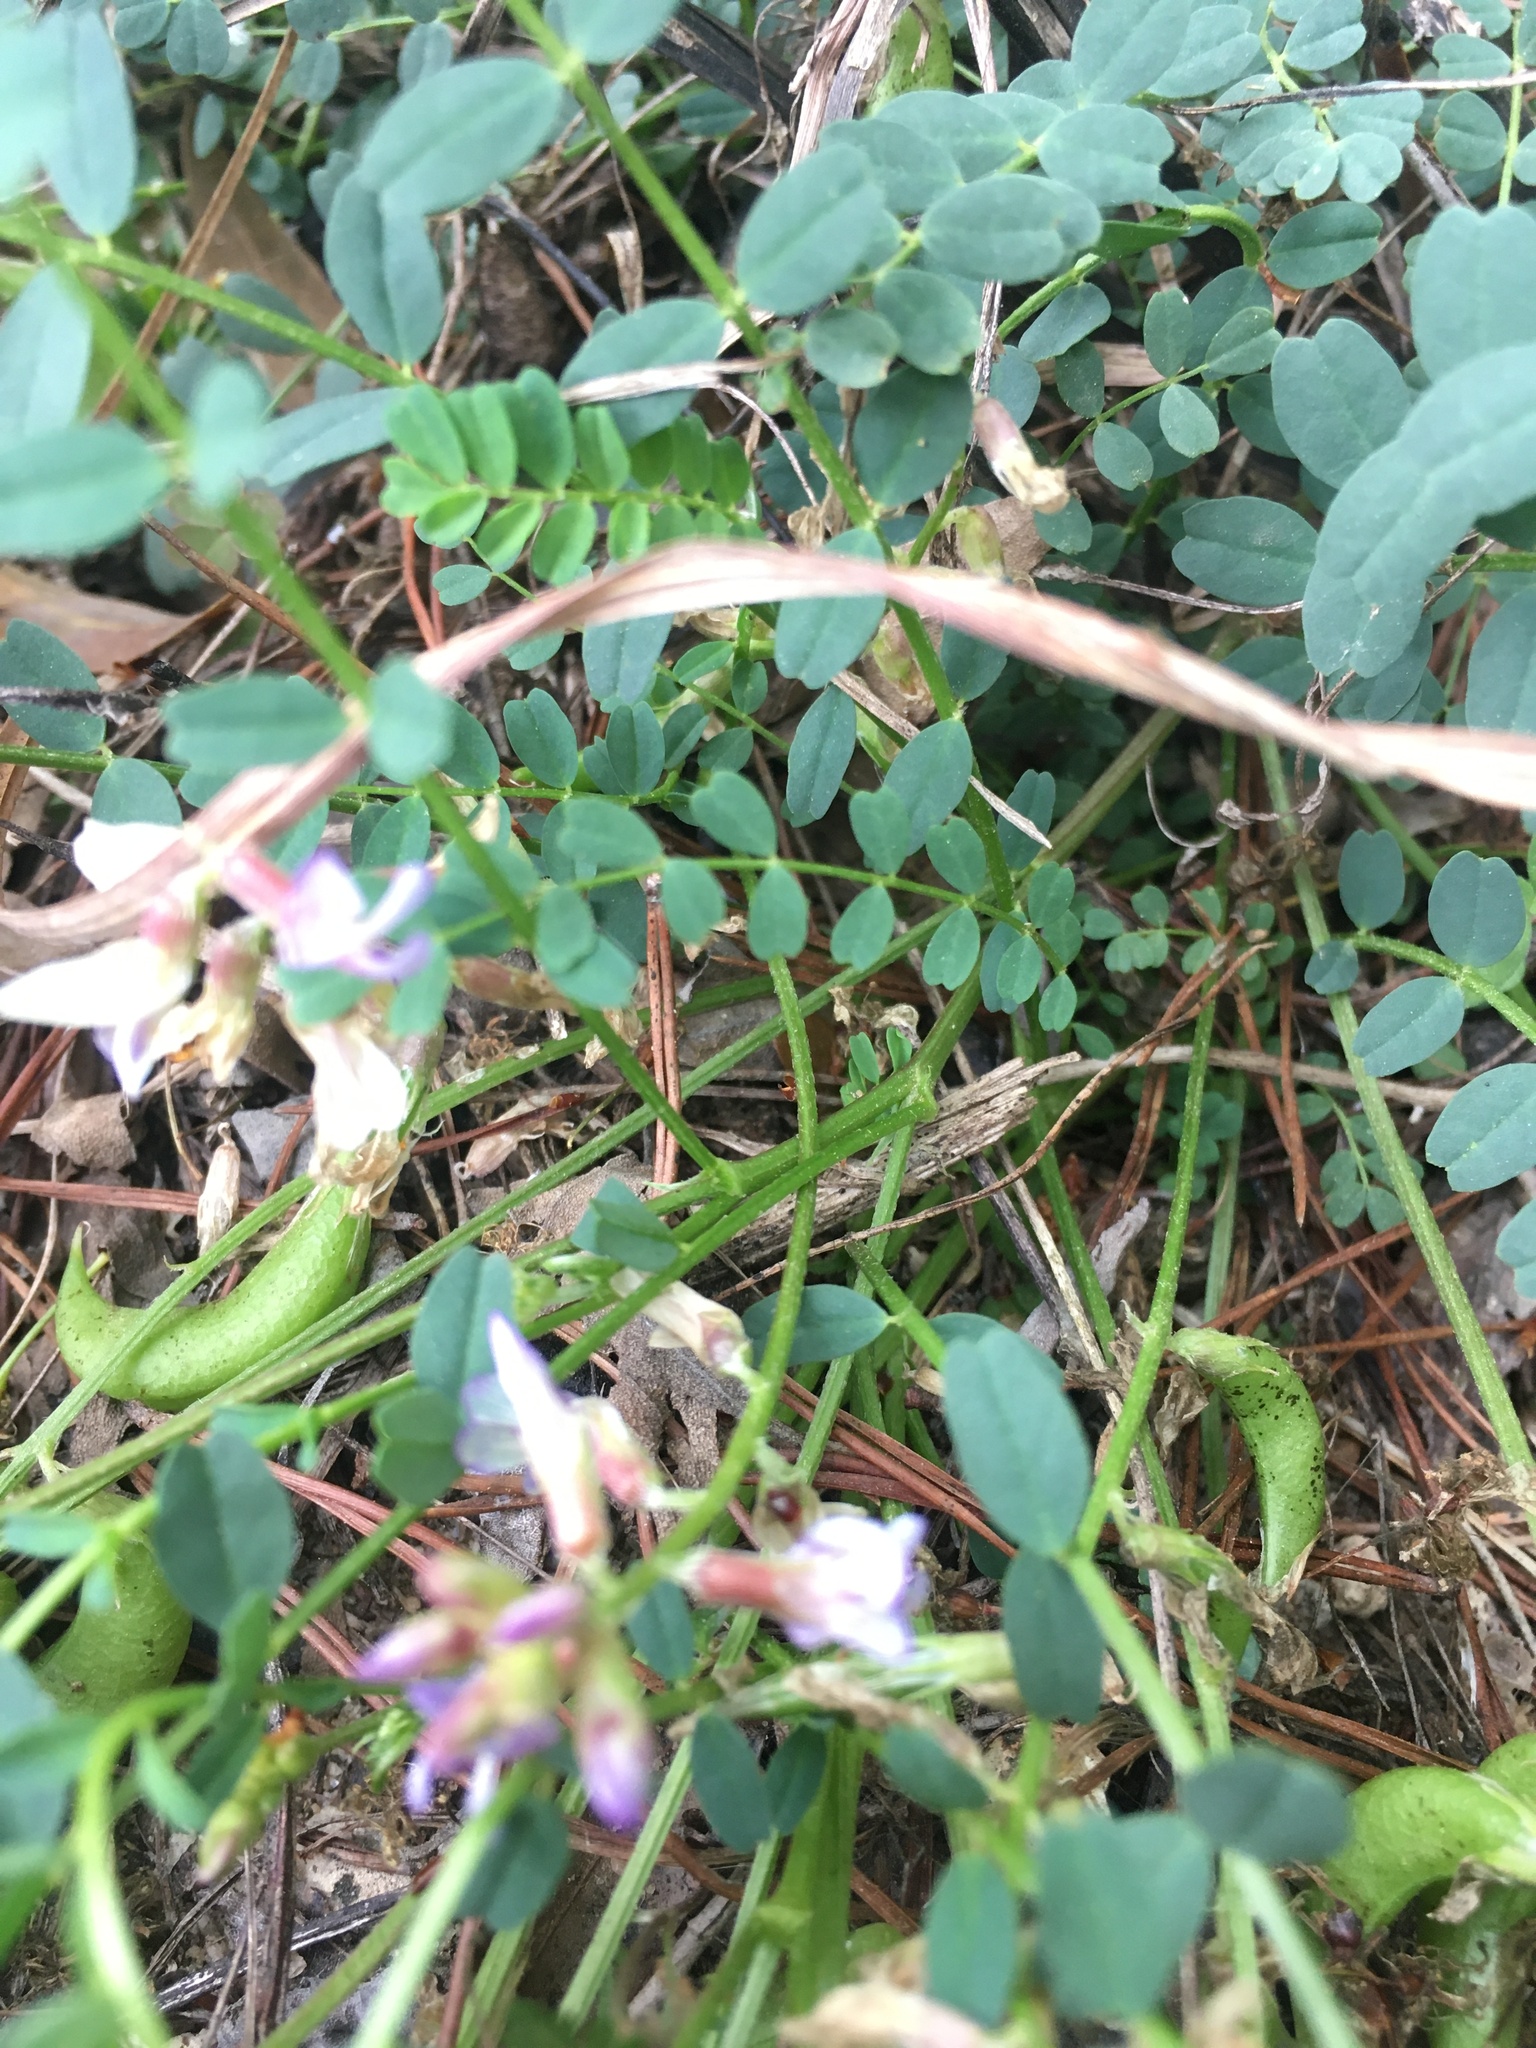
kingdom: Plantae
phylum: Tracheophyta
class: Magnoliopsida
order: Fabales
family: Fabaceae
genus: Astragalus
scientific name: Astragalus obcordatus
